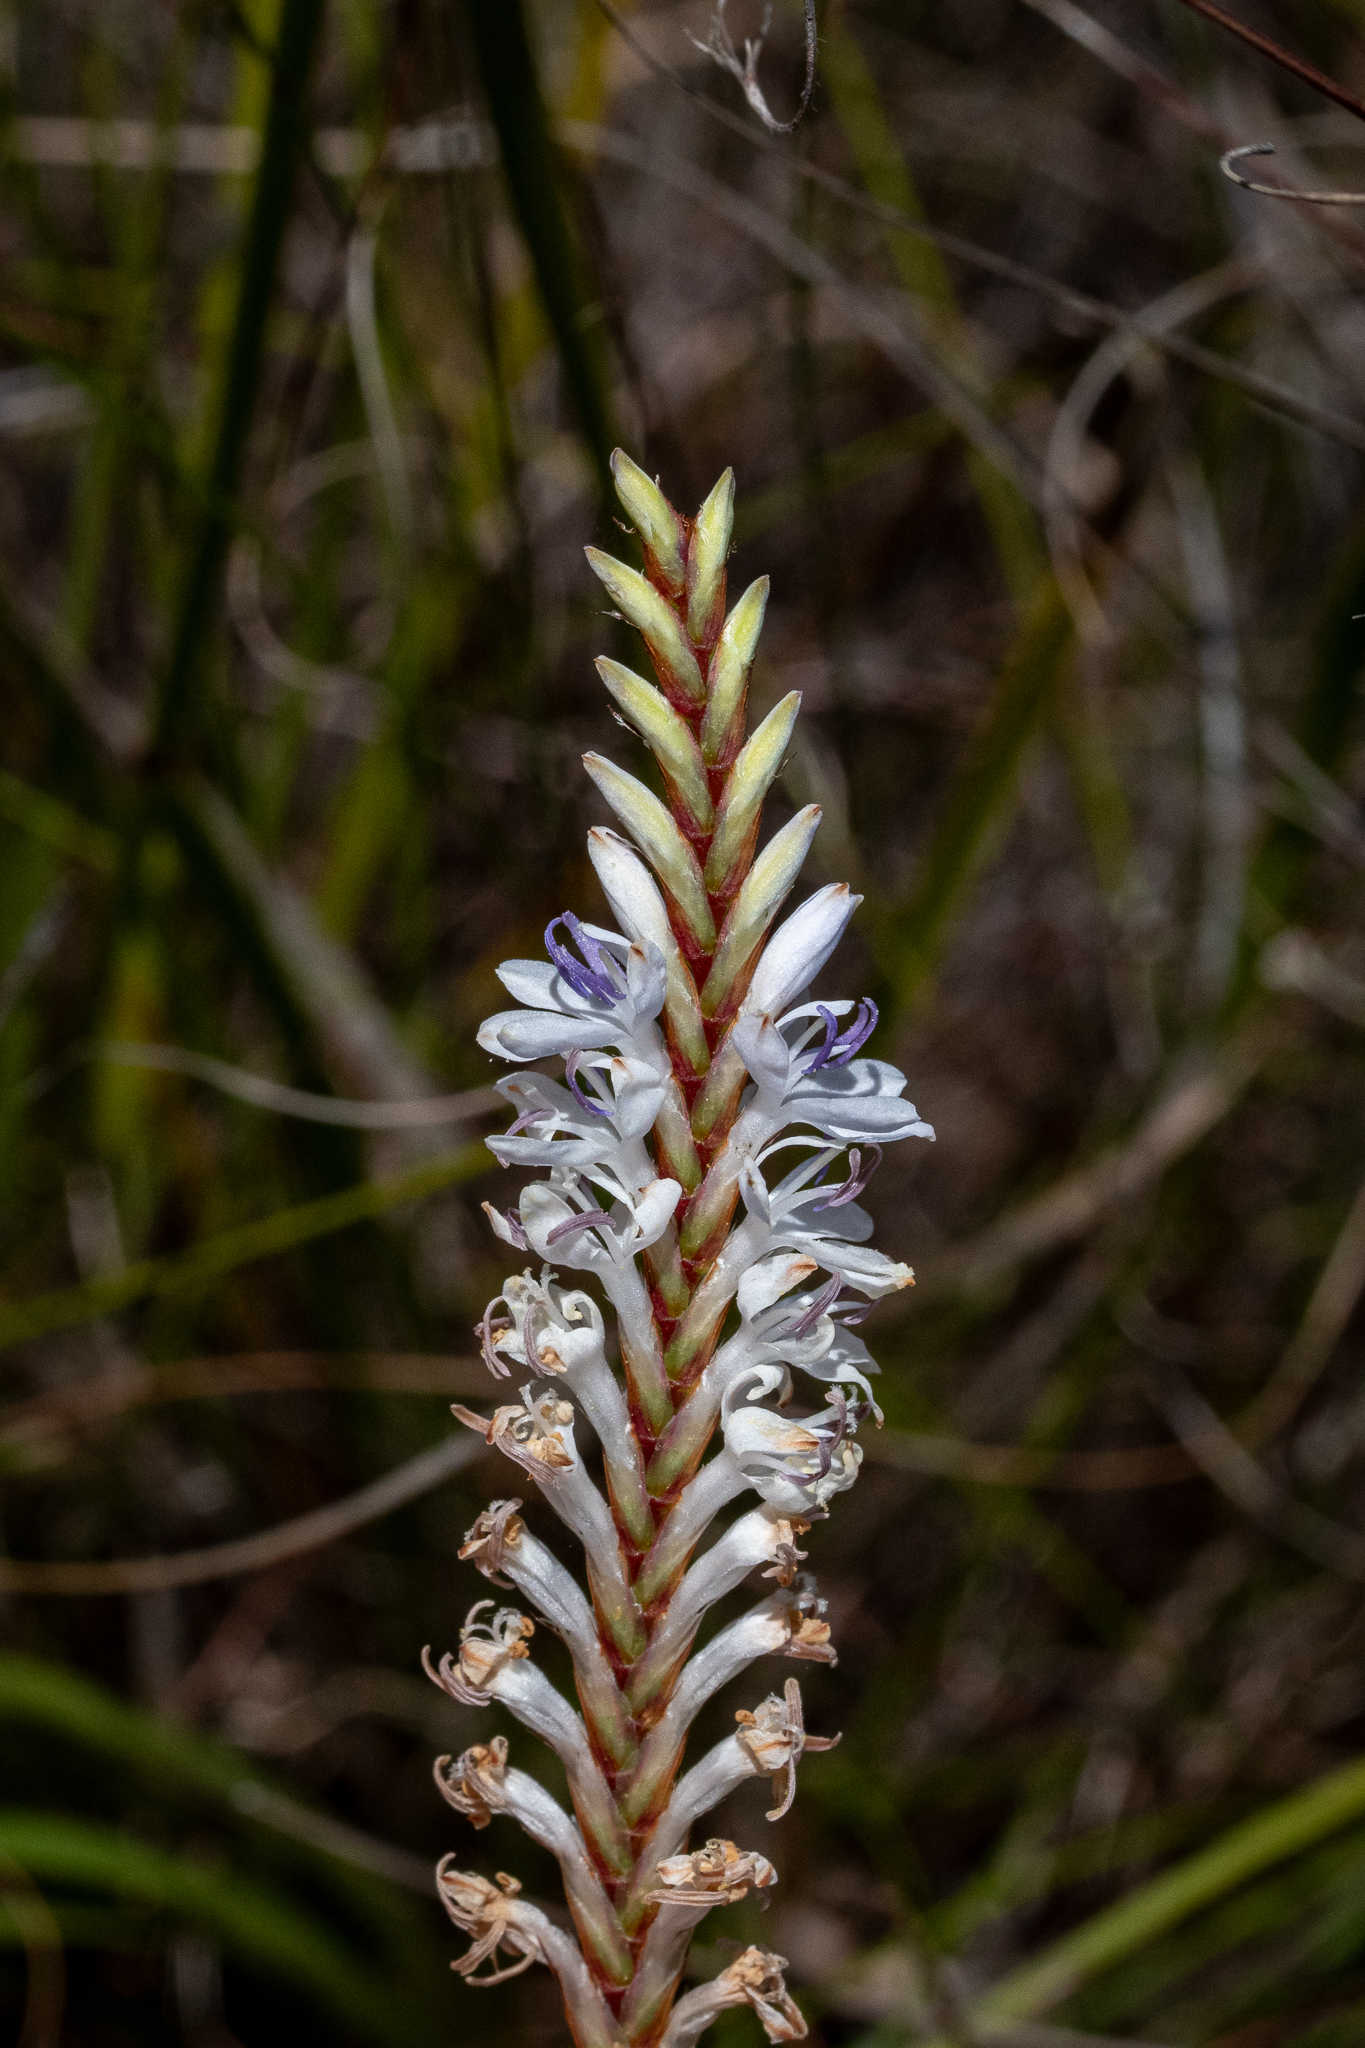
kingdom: Plantae
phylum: Tracheophyta
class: Liliopsida
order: Asparagales
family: Iridaceae
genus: Micranthus
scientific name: Micranthus alopecuroides
